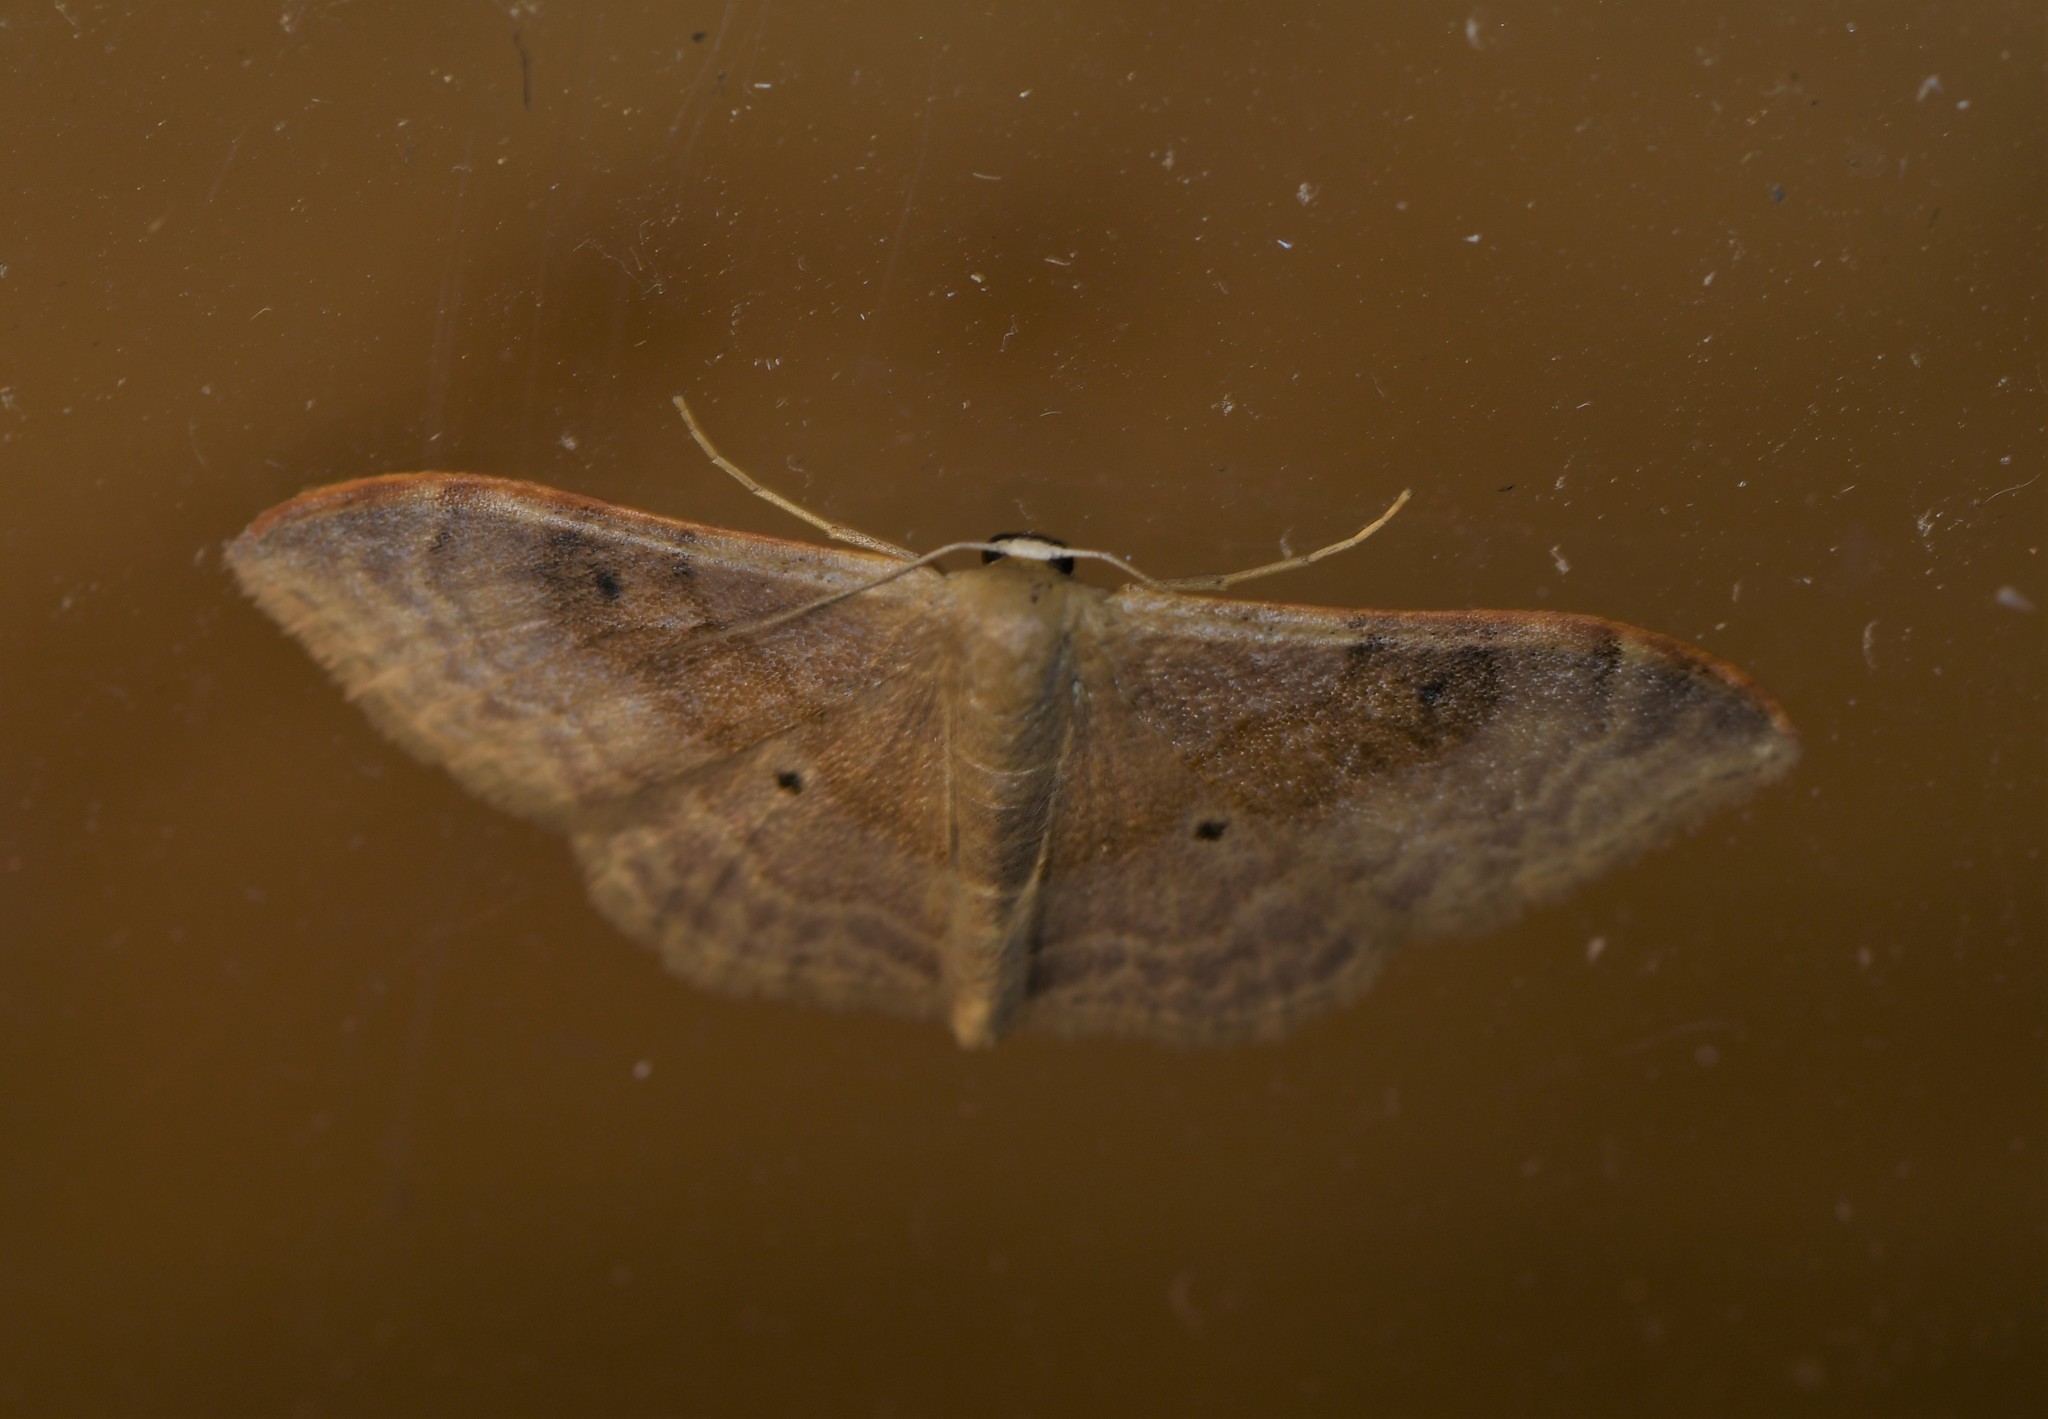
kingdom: Animalia
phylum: Arthropoda
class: Insecta
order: Lepidoptera
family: Geometridae
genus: Idaea
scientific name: Idaea degeneraria
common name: Portland ribbon wave
